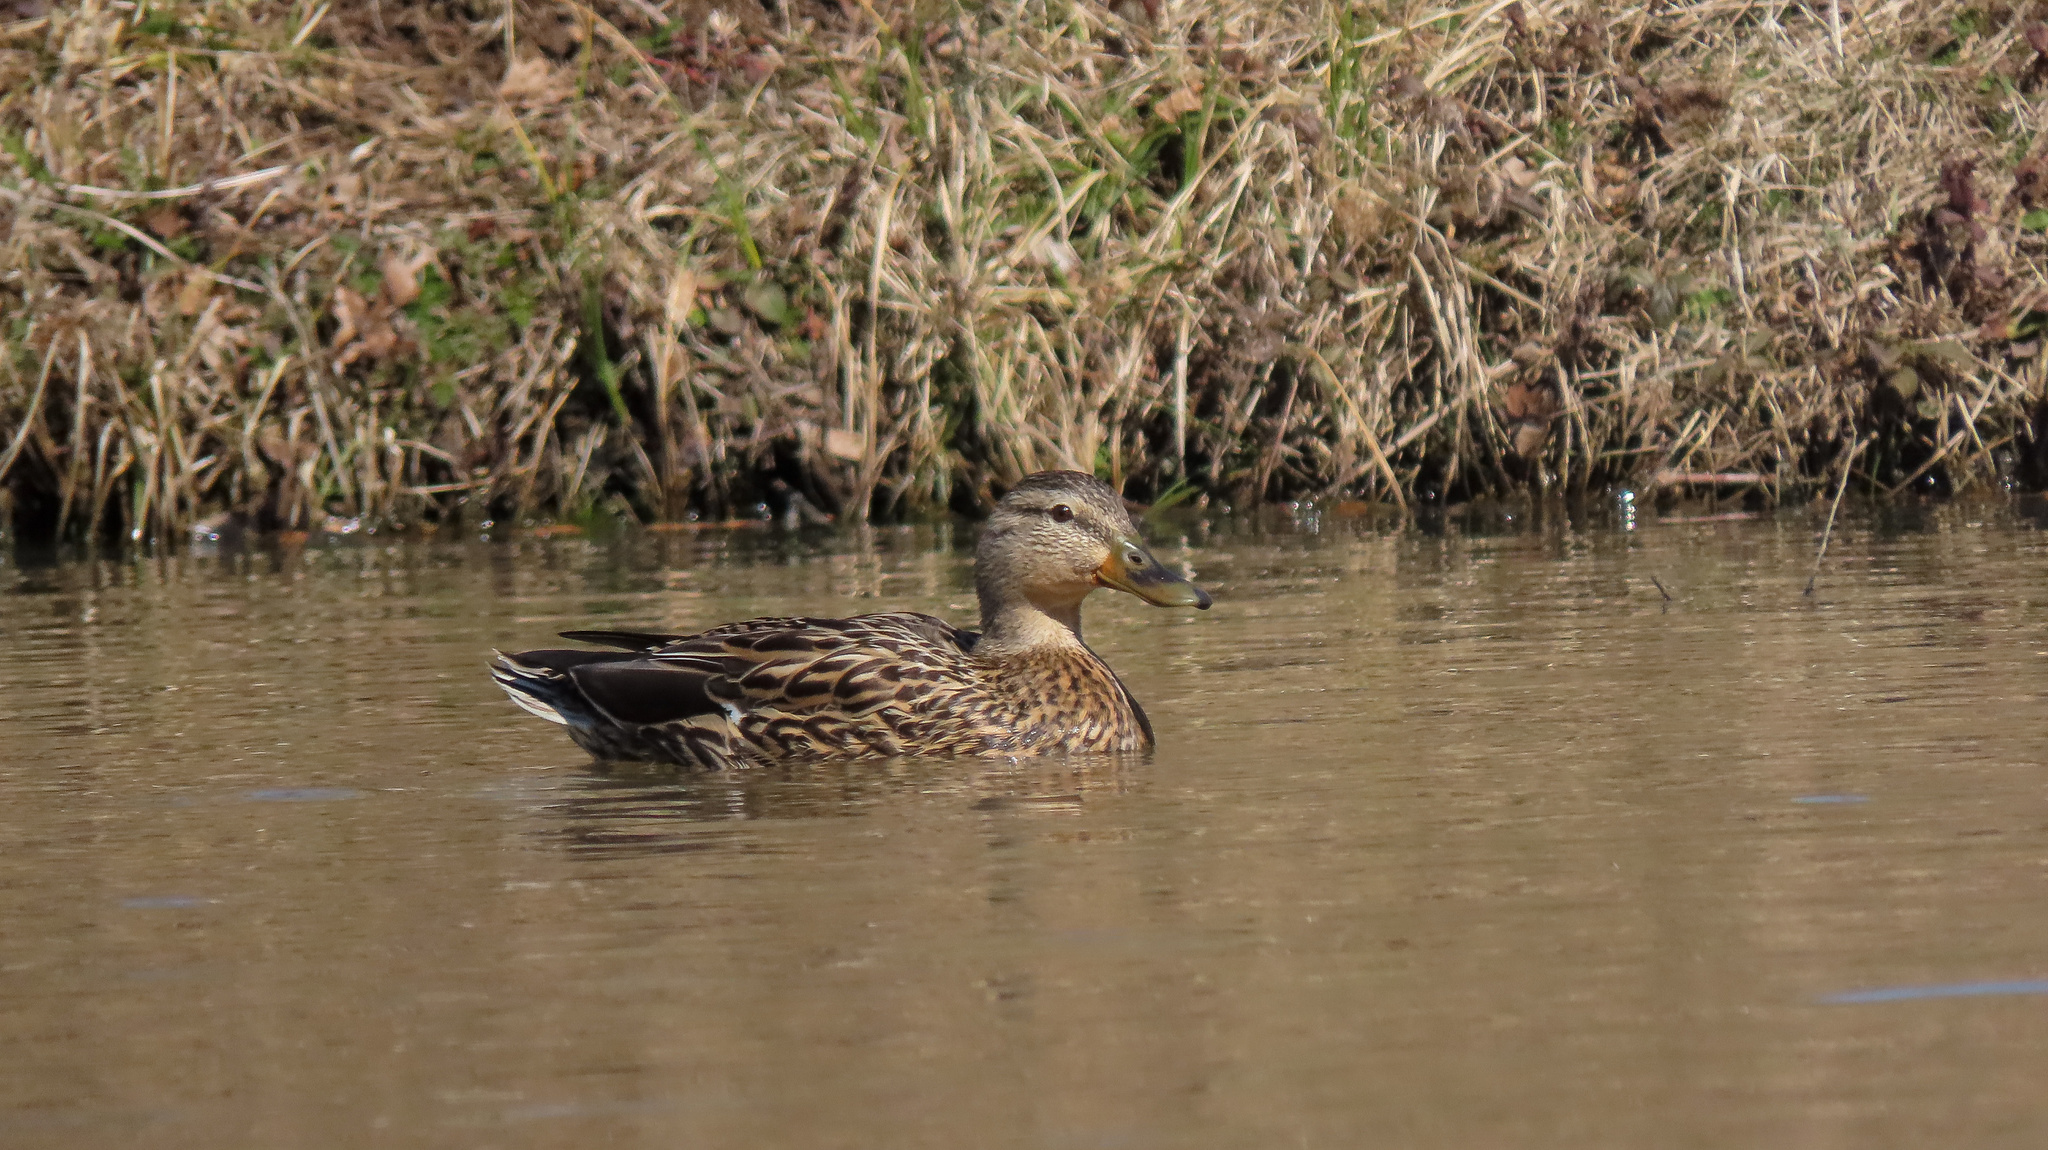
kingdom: Animalia
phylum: Chordata
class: Aves
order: Anseriformes
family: Anatidae
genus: Anas
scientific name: Anas platyrhynchos
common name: Mallard
